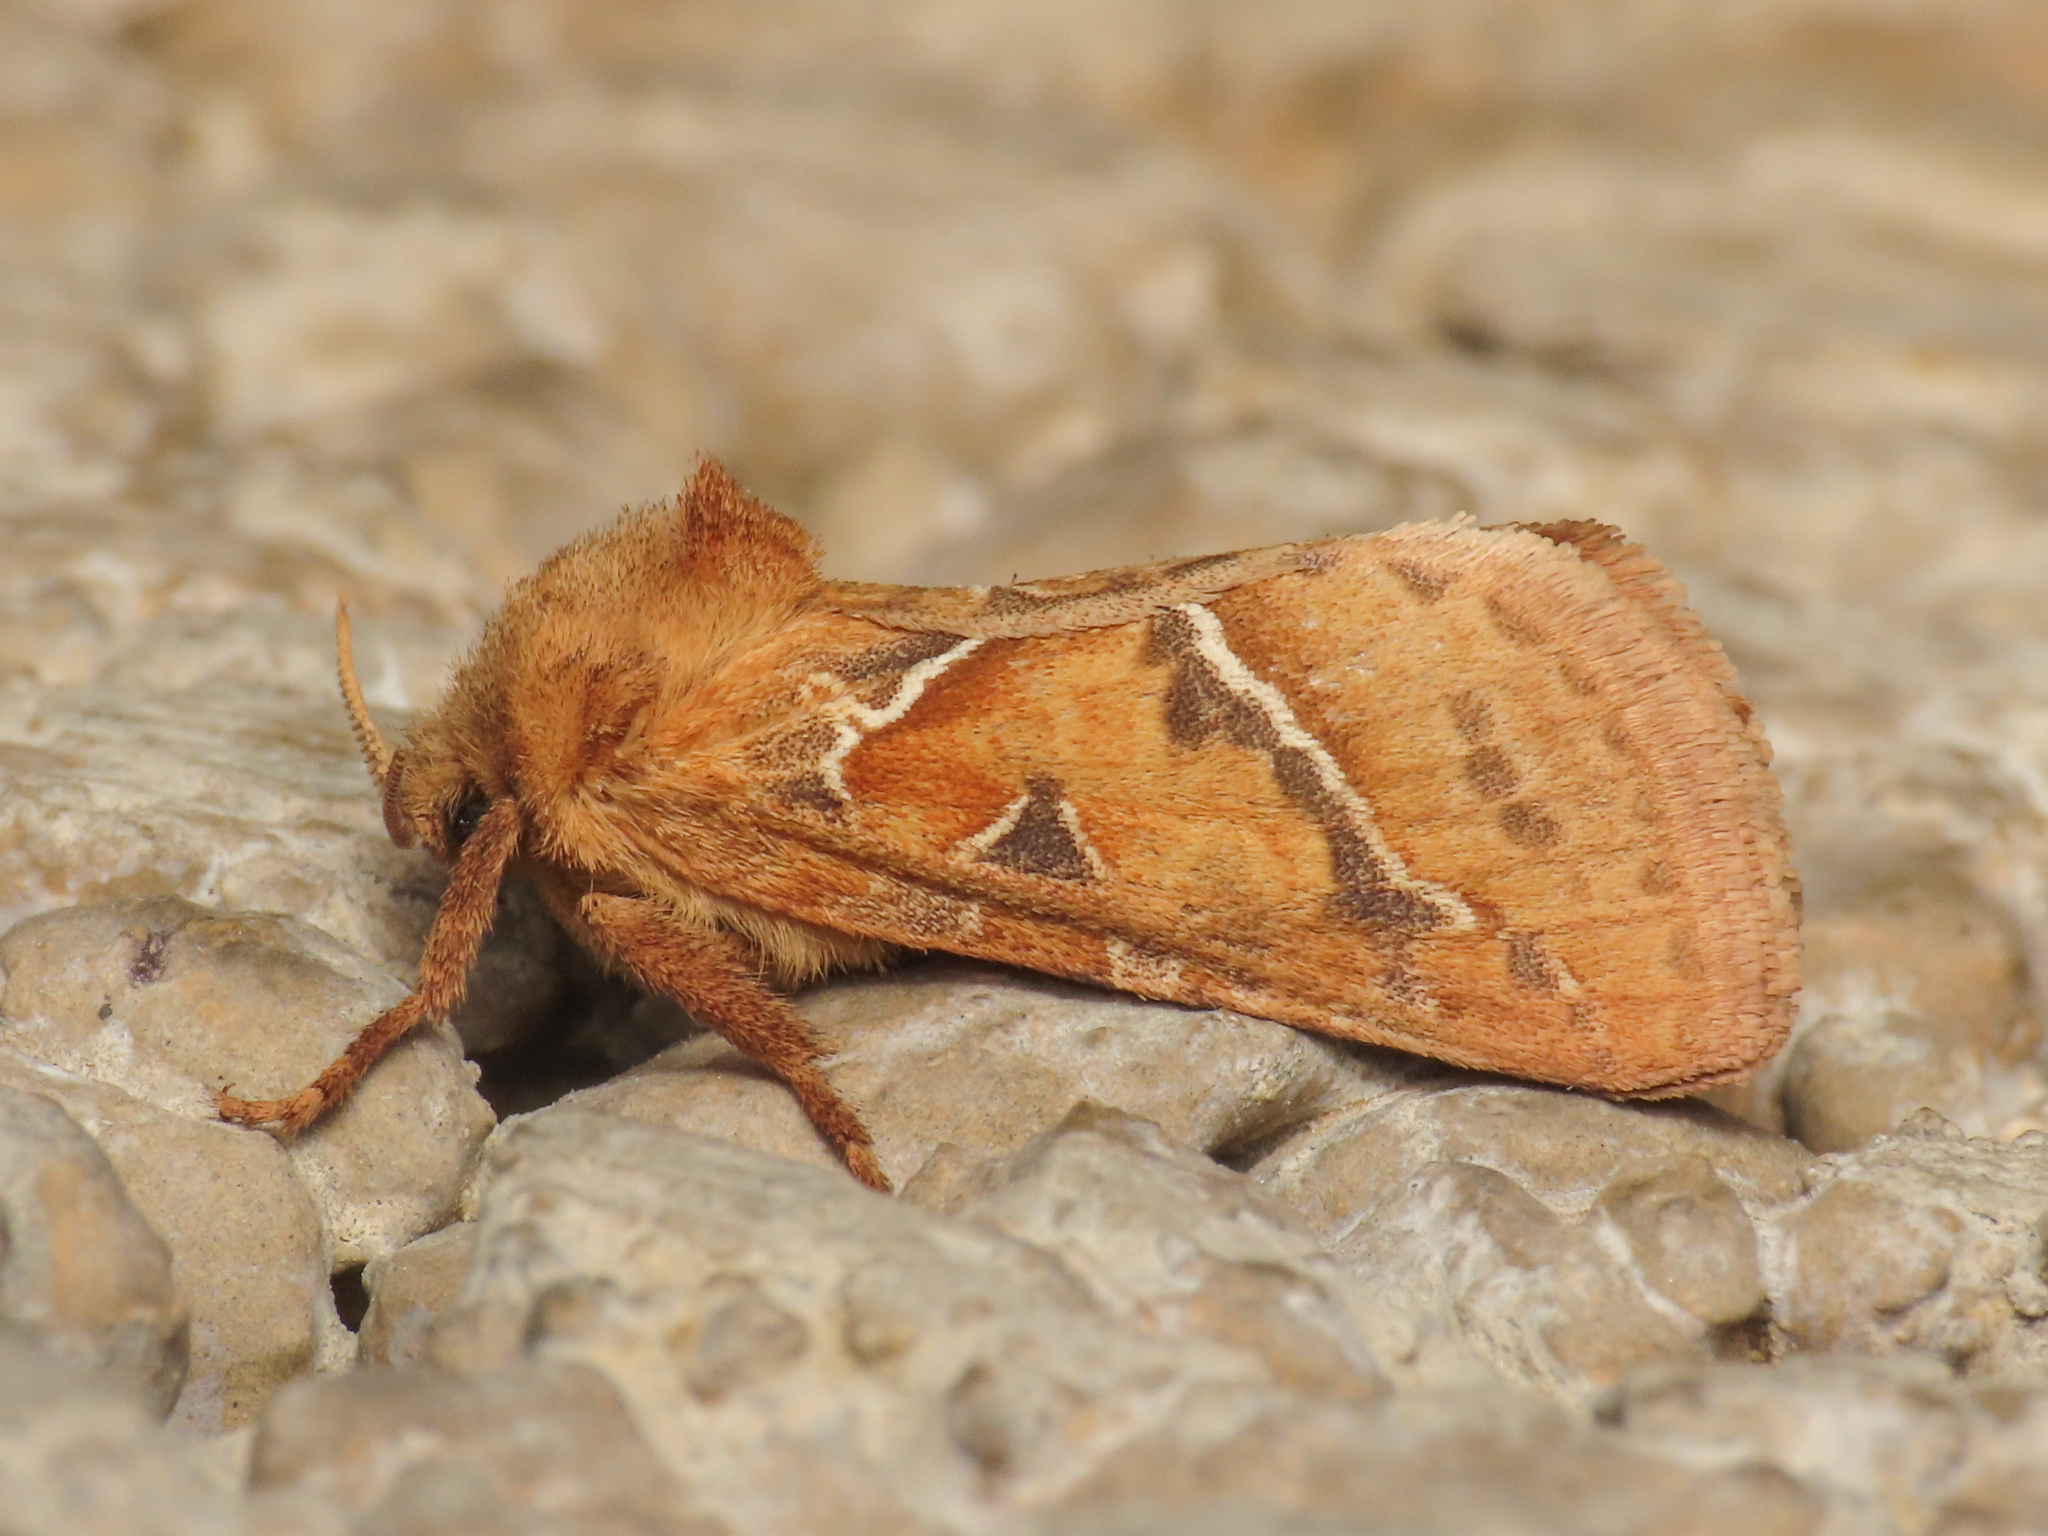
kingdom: Animalia
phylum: Arthropoda
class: Insecta
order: Lepidoptera
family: Hepialidae
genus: Triodia
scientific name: Triodia sylvina
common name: Orange swift
